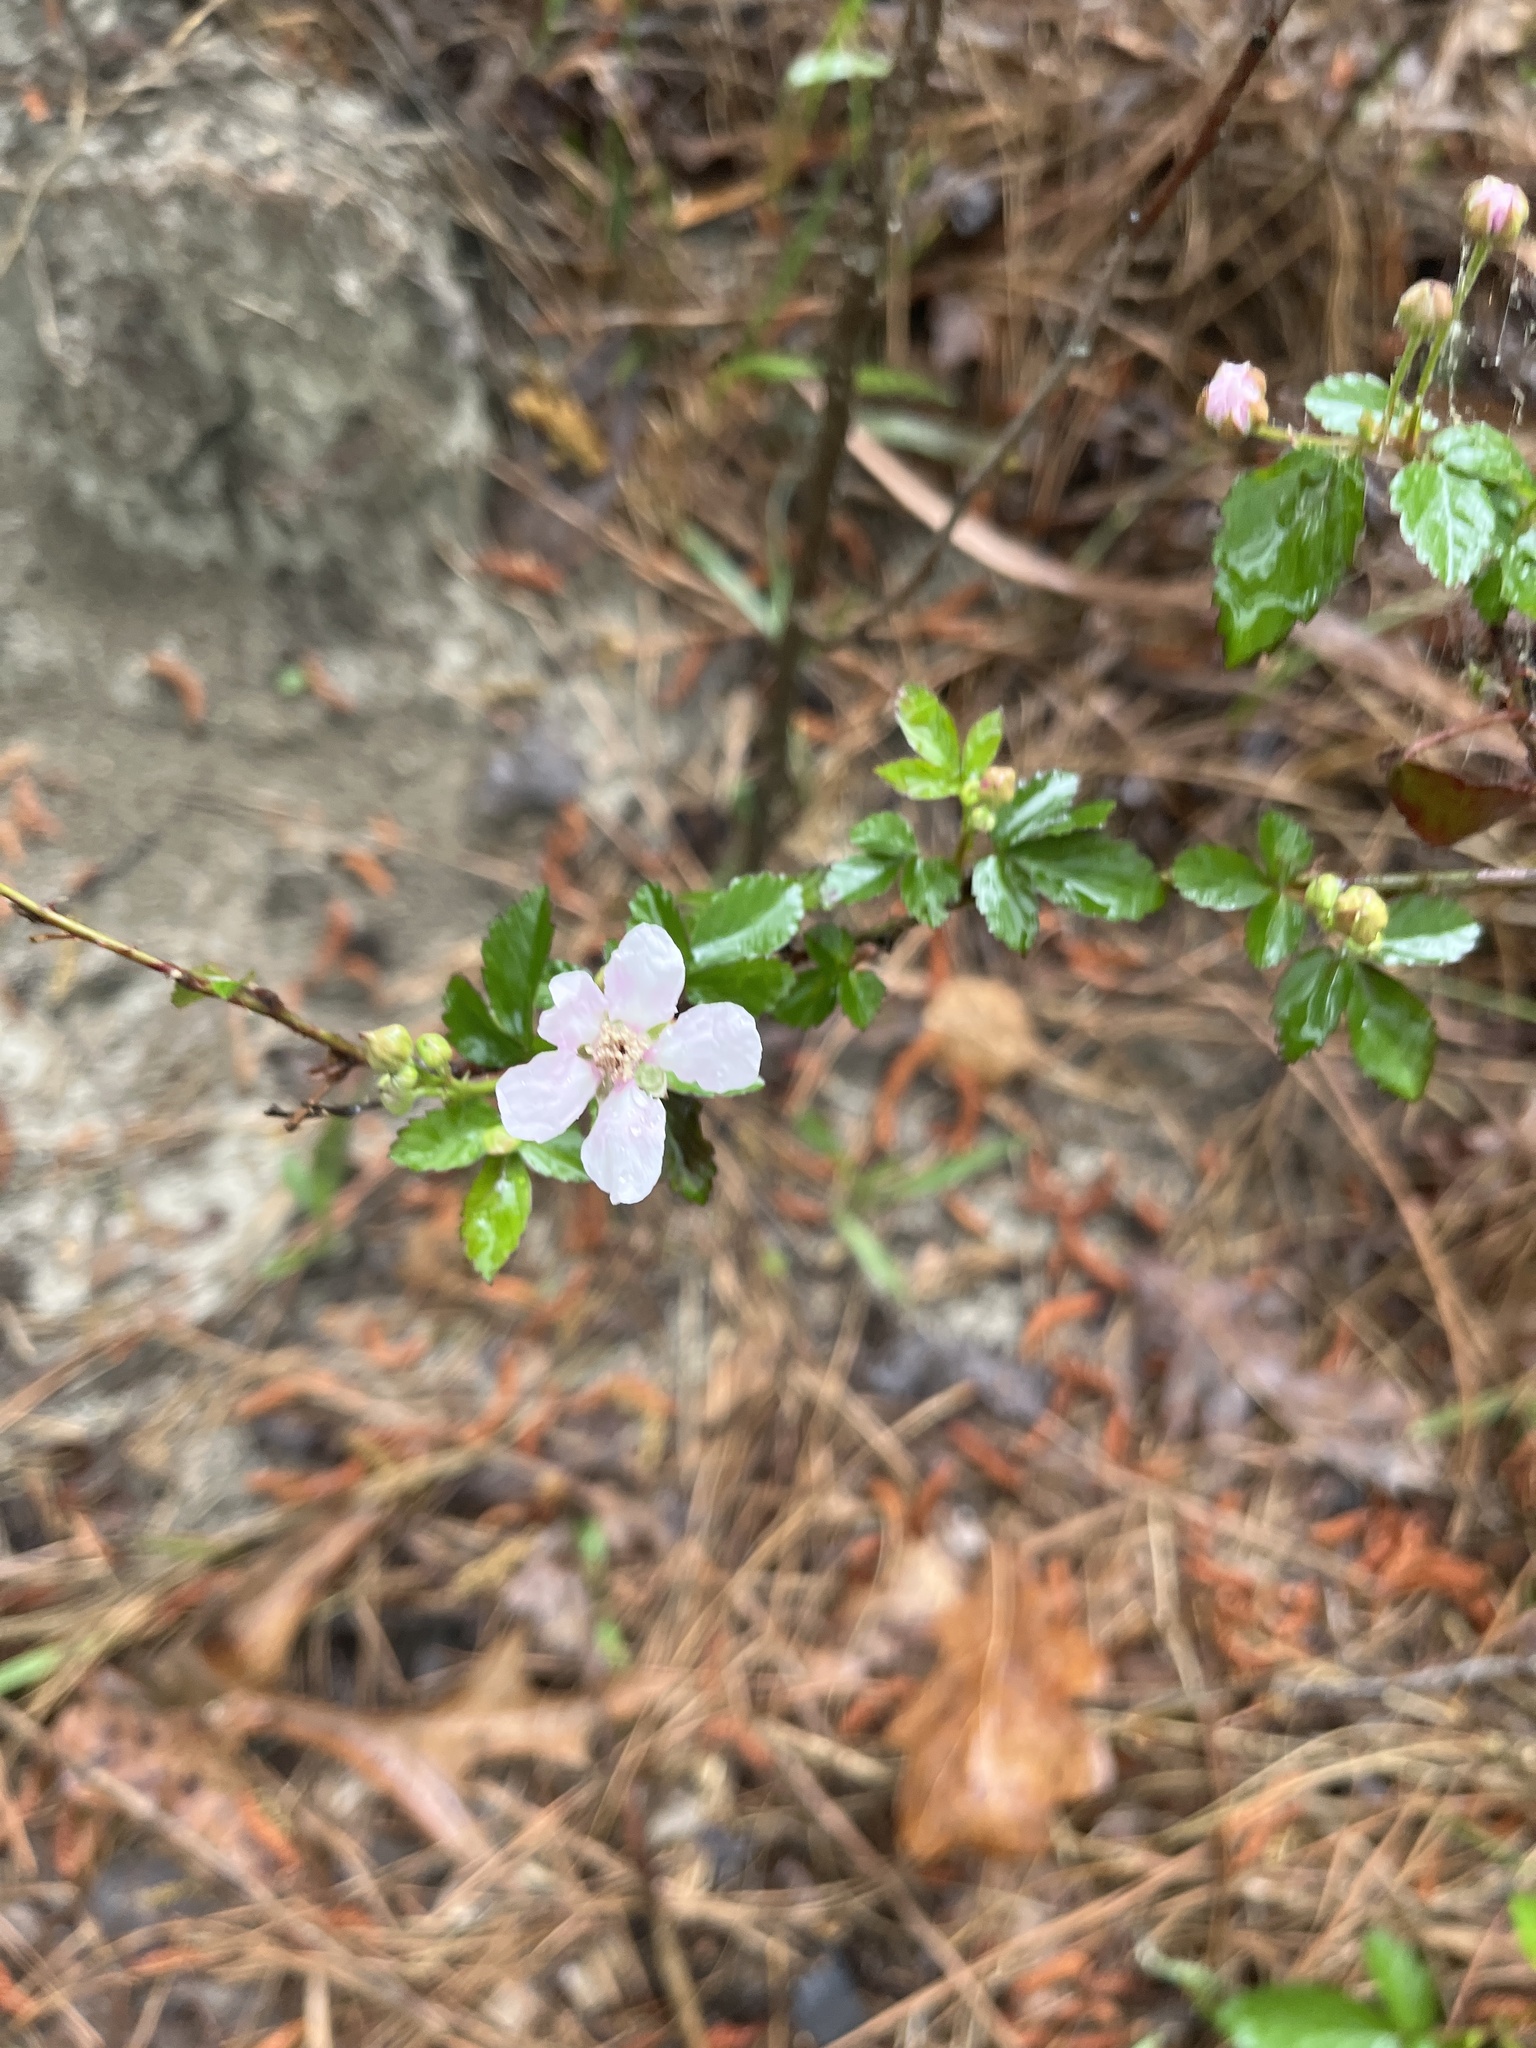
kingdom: Plantae
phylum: Tracheophyta
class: Magnoliopsida
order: Rosales
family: Rosaceae
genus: Rubus
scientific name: Rubus
